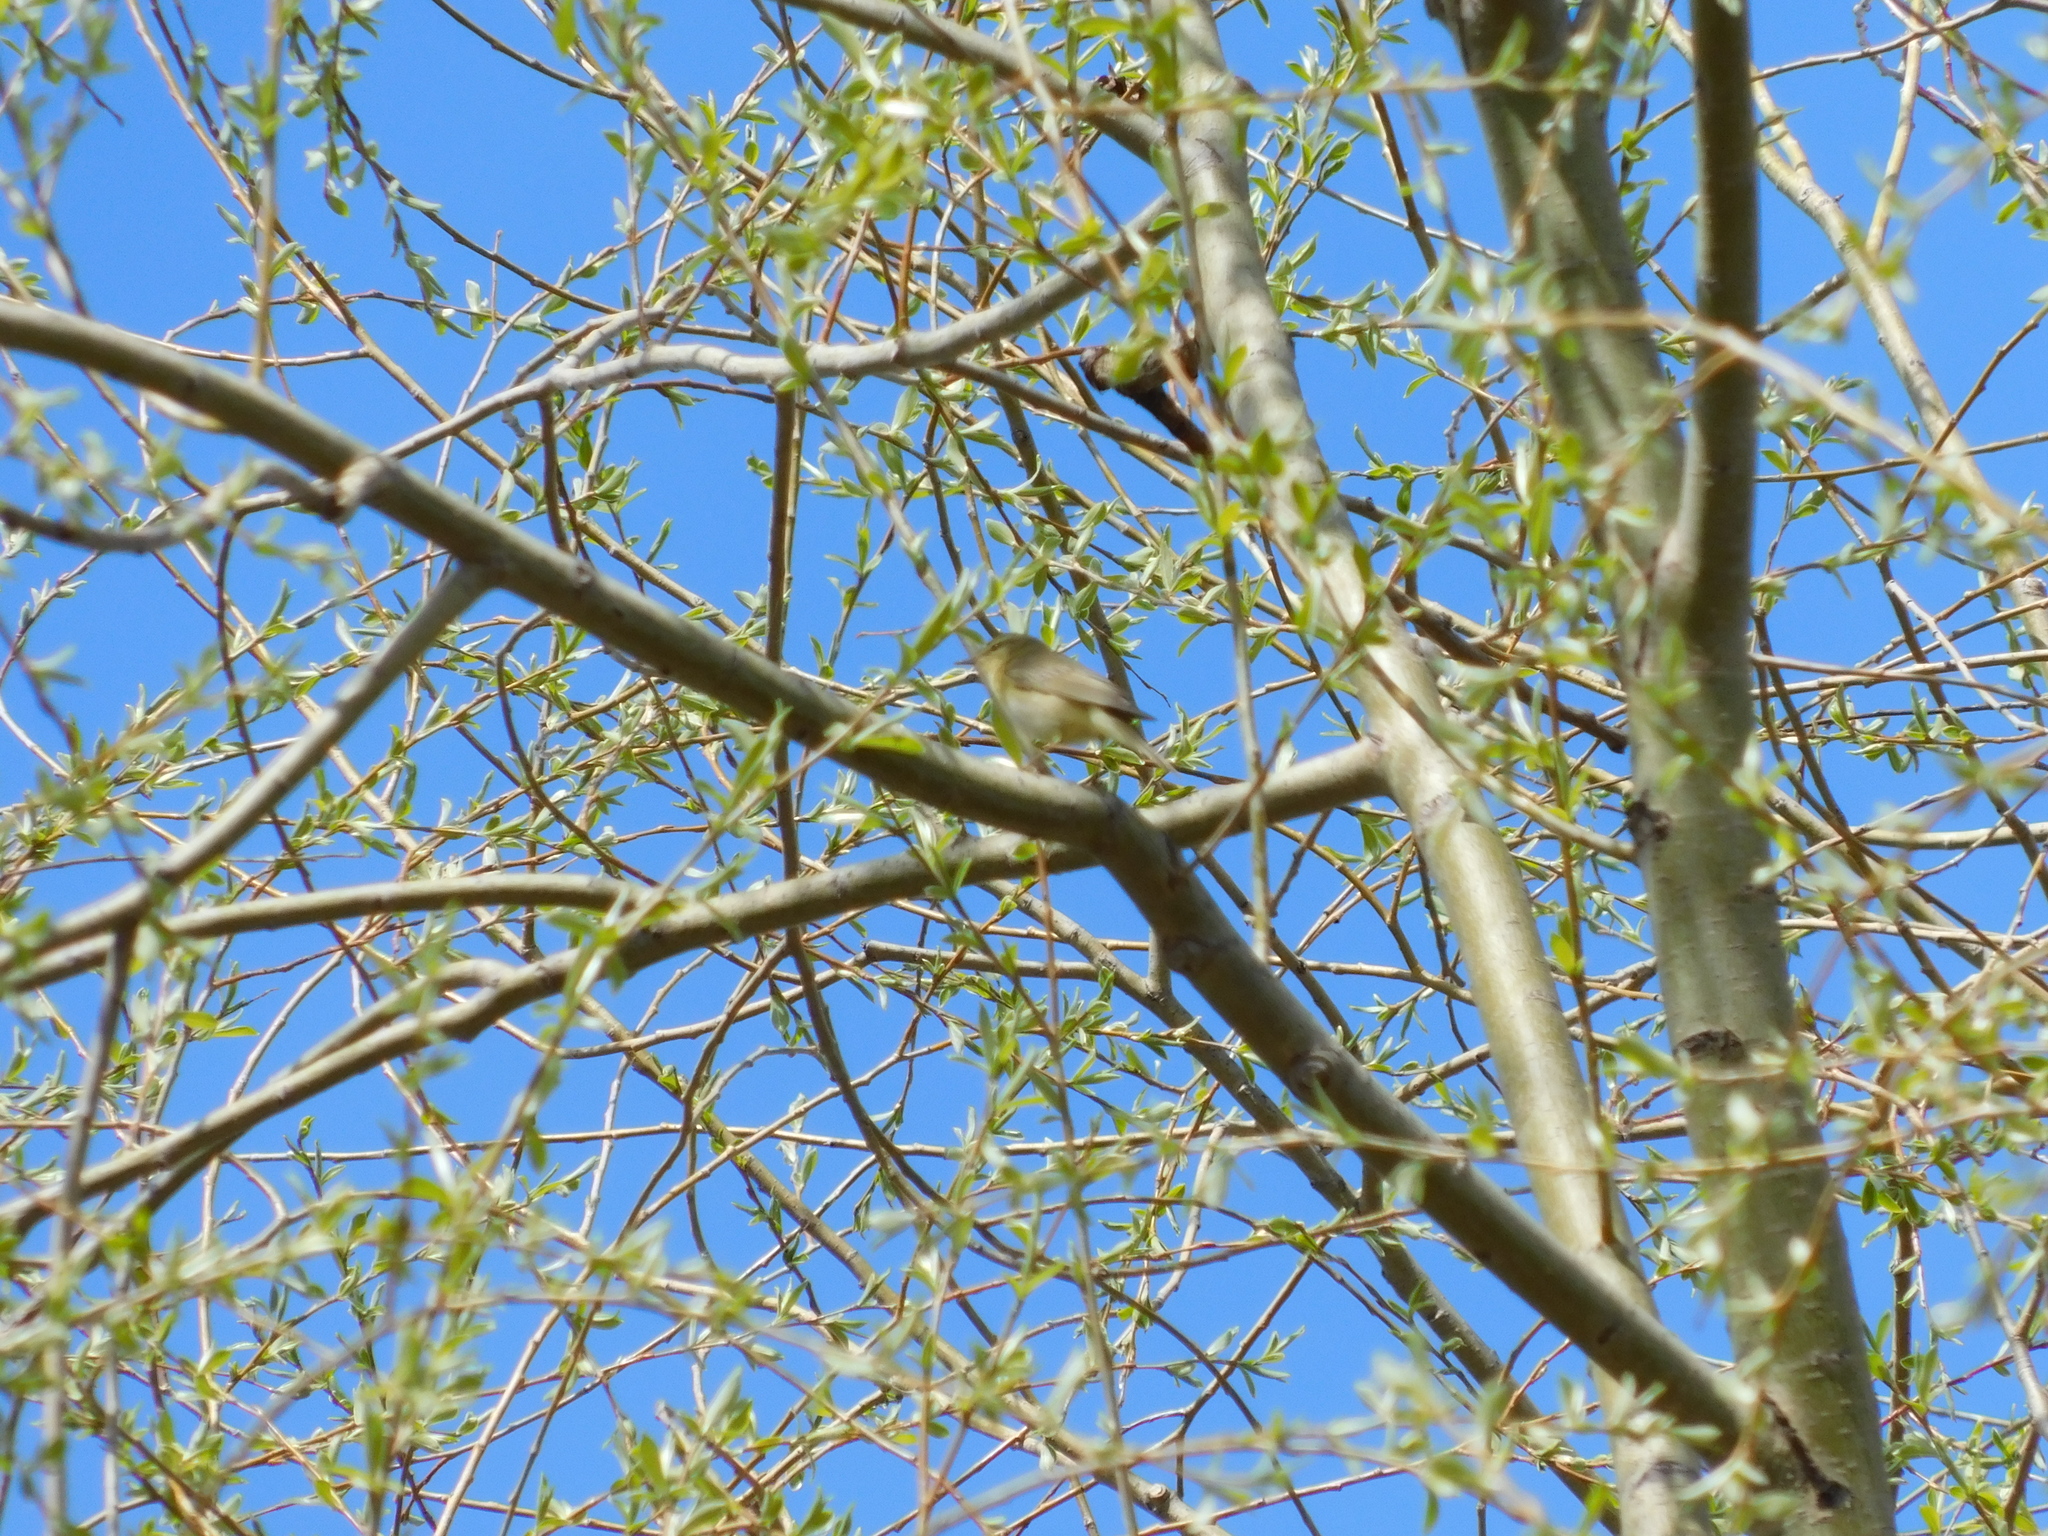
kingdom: Animalia
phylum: Chordata
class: Aves
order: Passeriformes
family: Phylloscopidae
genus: Phylloscopus
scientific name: Phylloscopus trochilus
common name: Willow warbler
